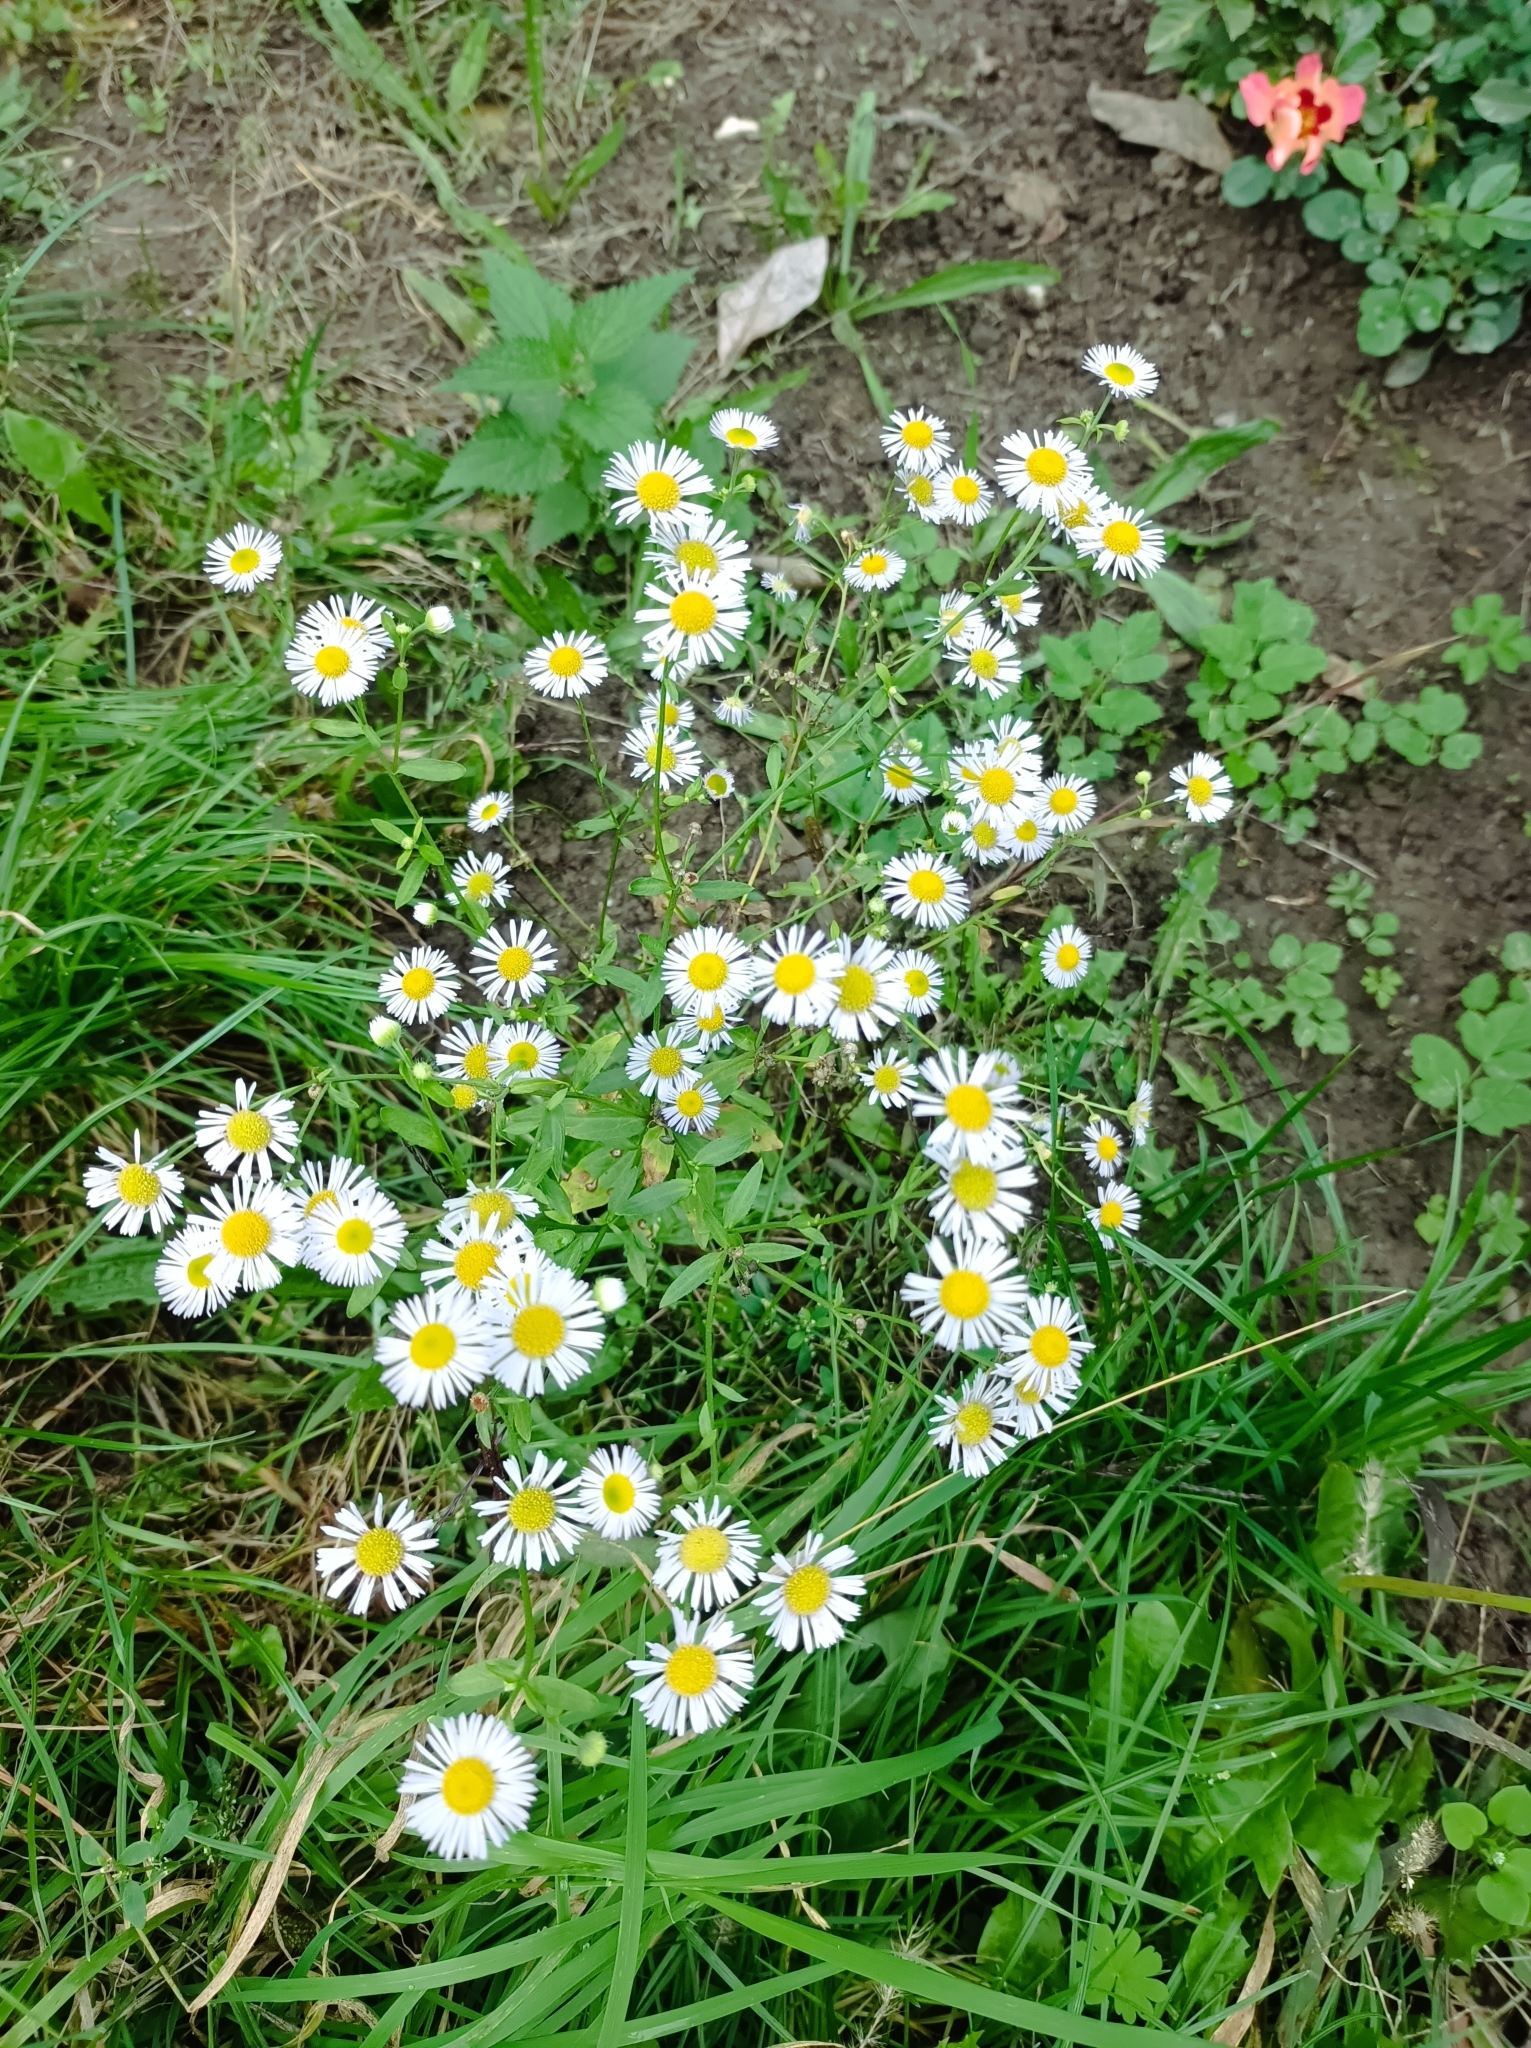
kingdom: Plantae
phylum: Tracheophyta
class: Magnoliopsida
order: Asterales
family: Asteraceae
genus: Erigeron
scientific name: Erigeron annuus
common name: Tall fleabane
